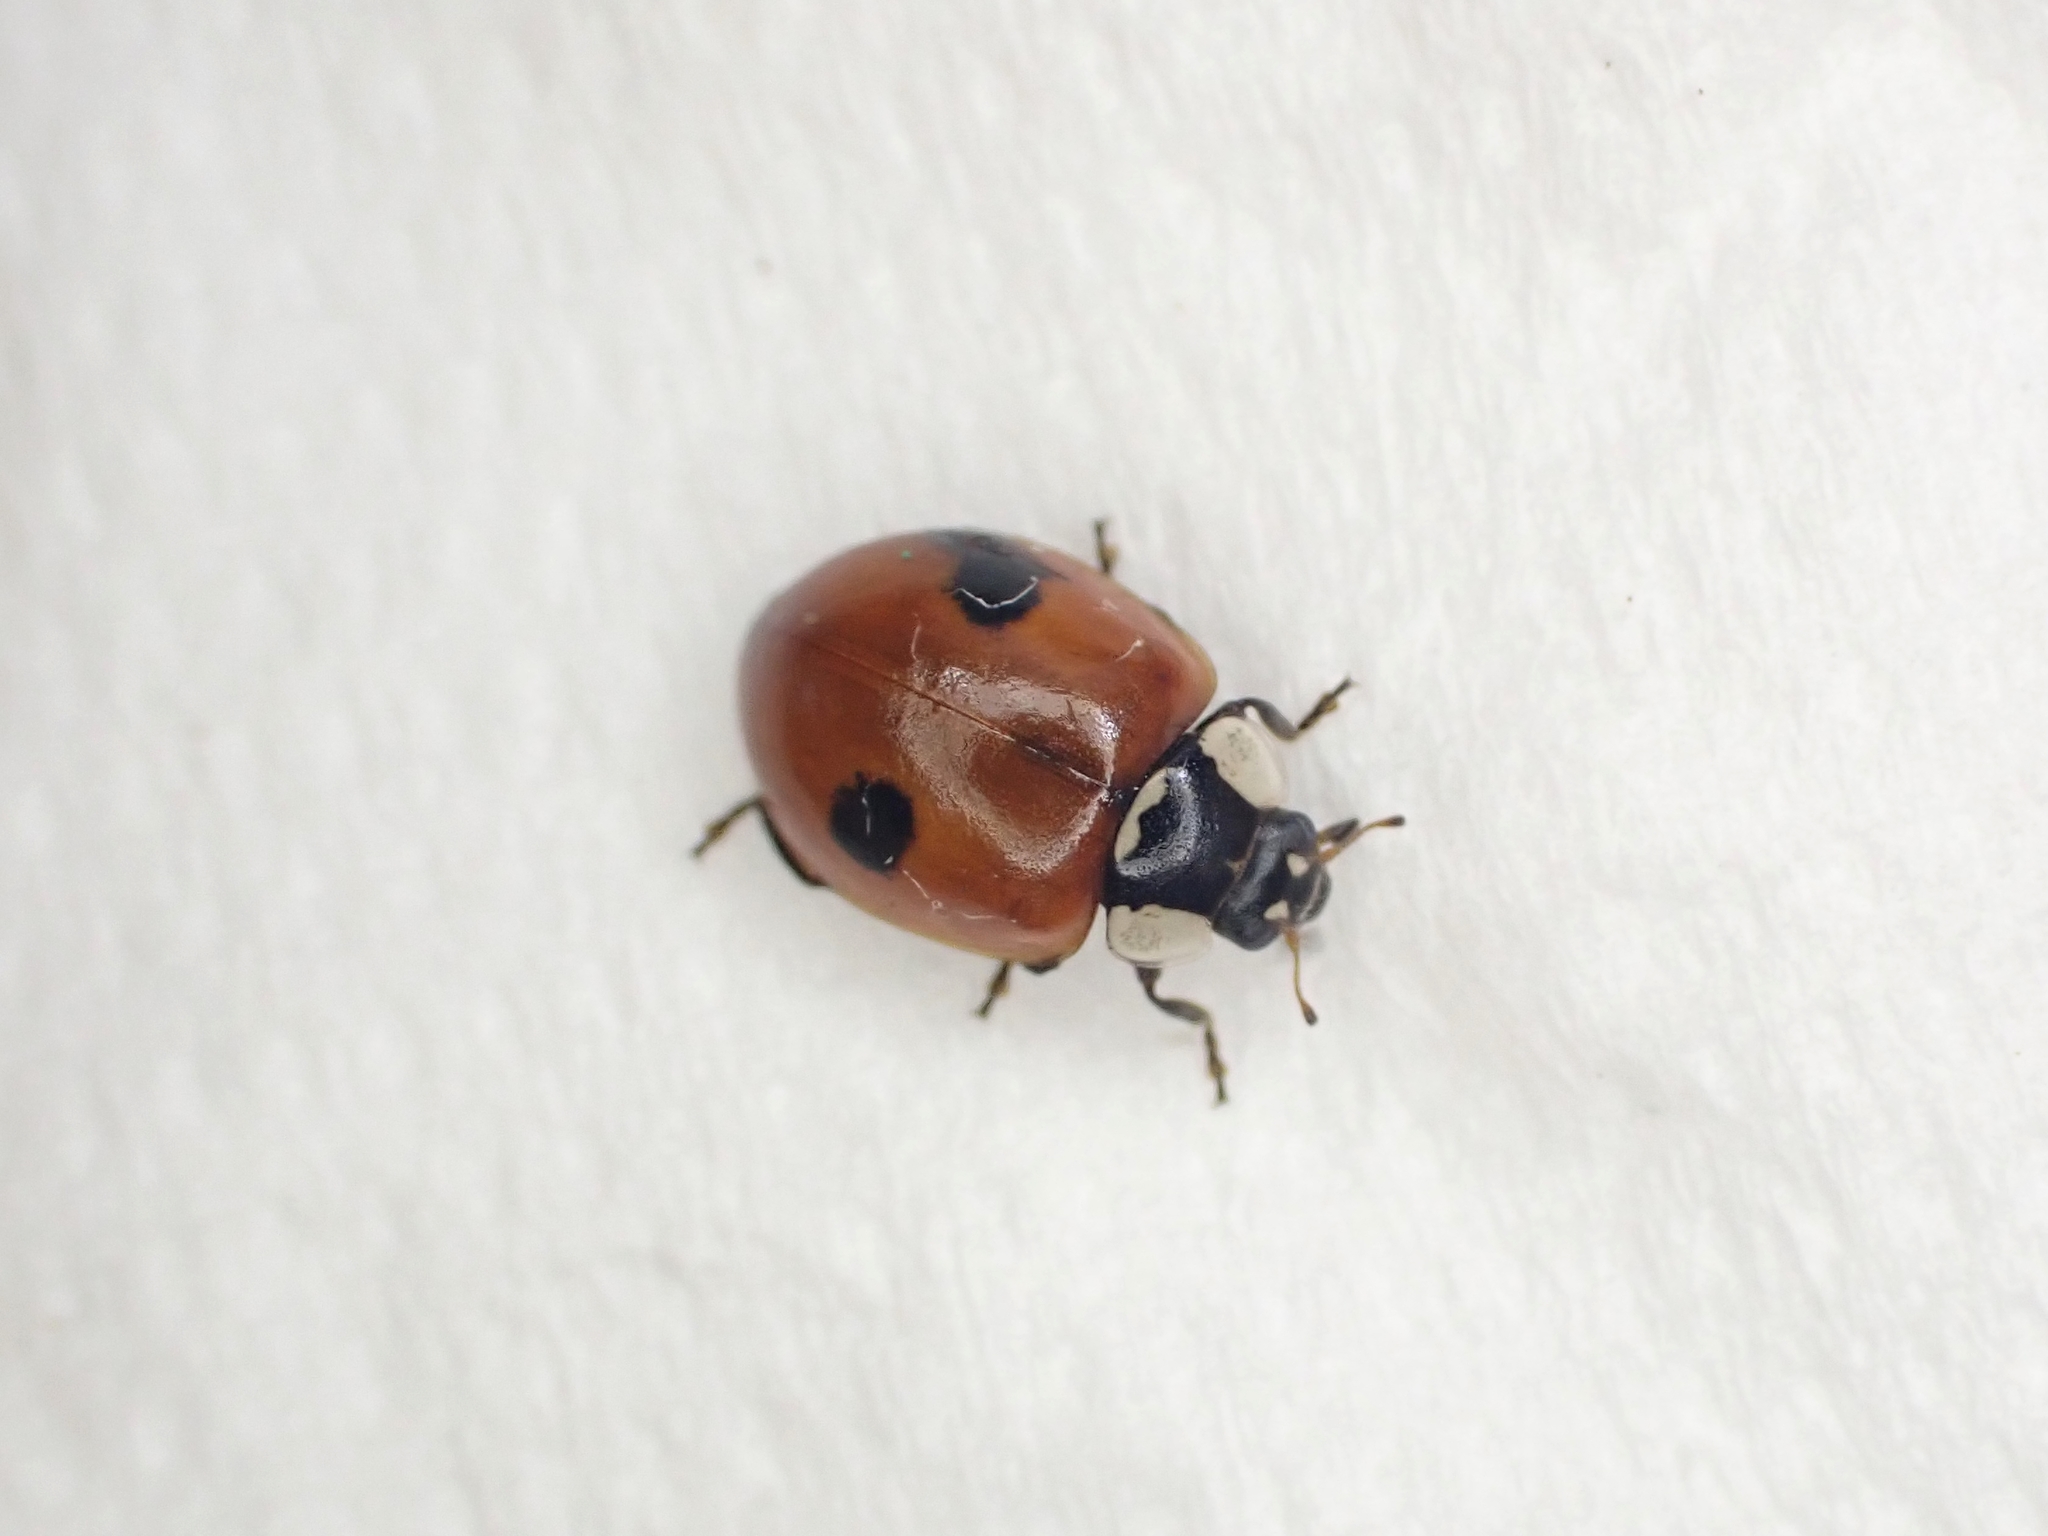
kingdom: Animalia
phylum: Arthropoda
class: Insecta
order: Coleoptera
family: Coccinellidae
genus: Adalia
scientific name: Adalia bipunctata
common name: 2-spot ladybird
